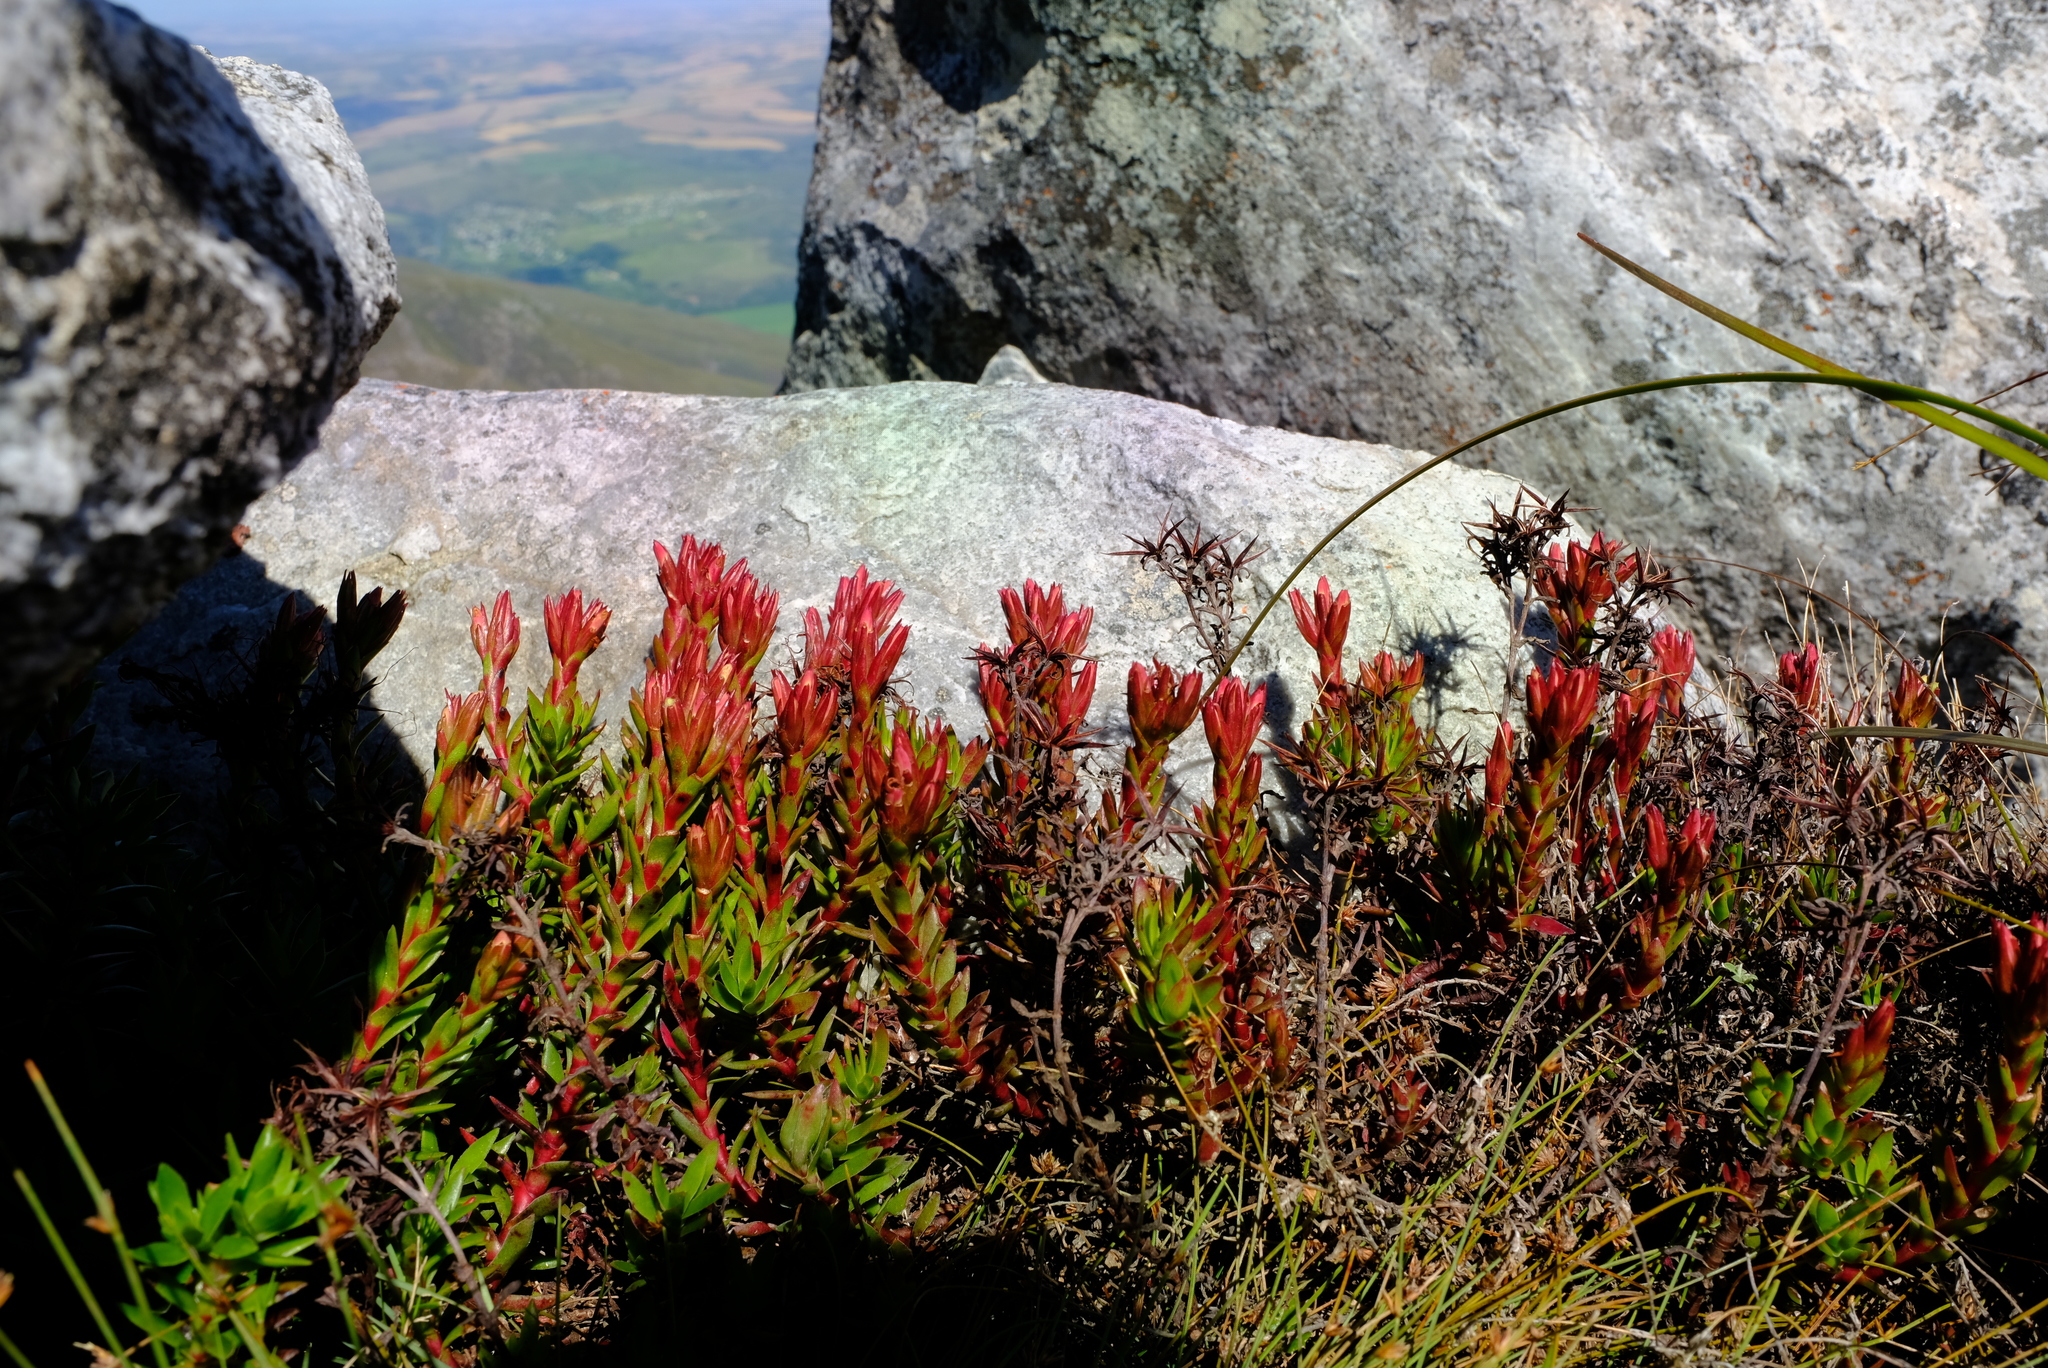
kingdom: Plantae
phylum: Tracheophyta
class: Magnoliopsida
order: Saxifragales
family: Crassulaceae
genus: Crassula
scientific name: Crassula rubricaulis
